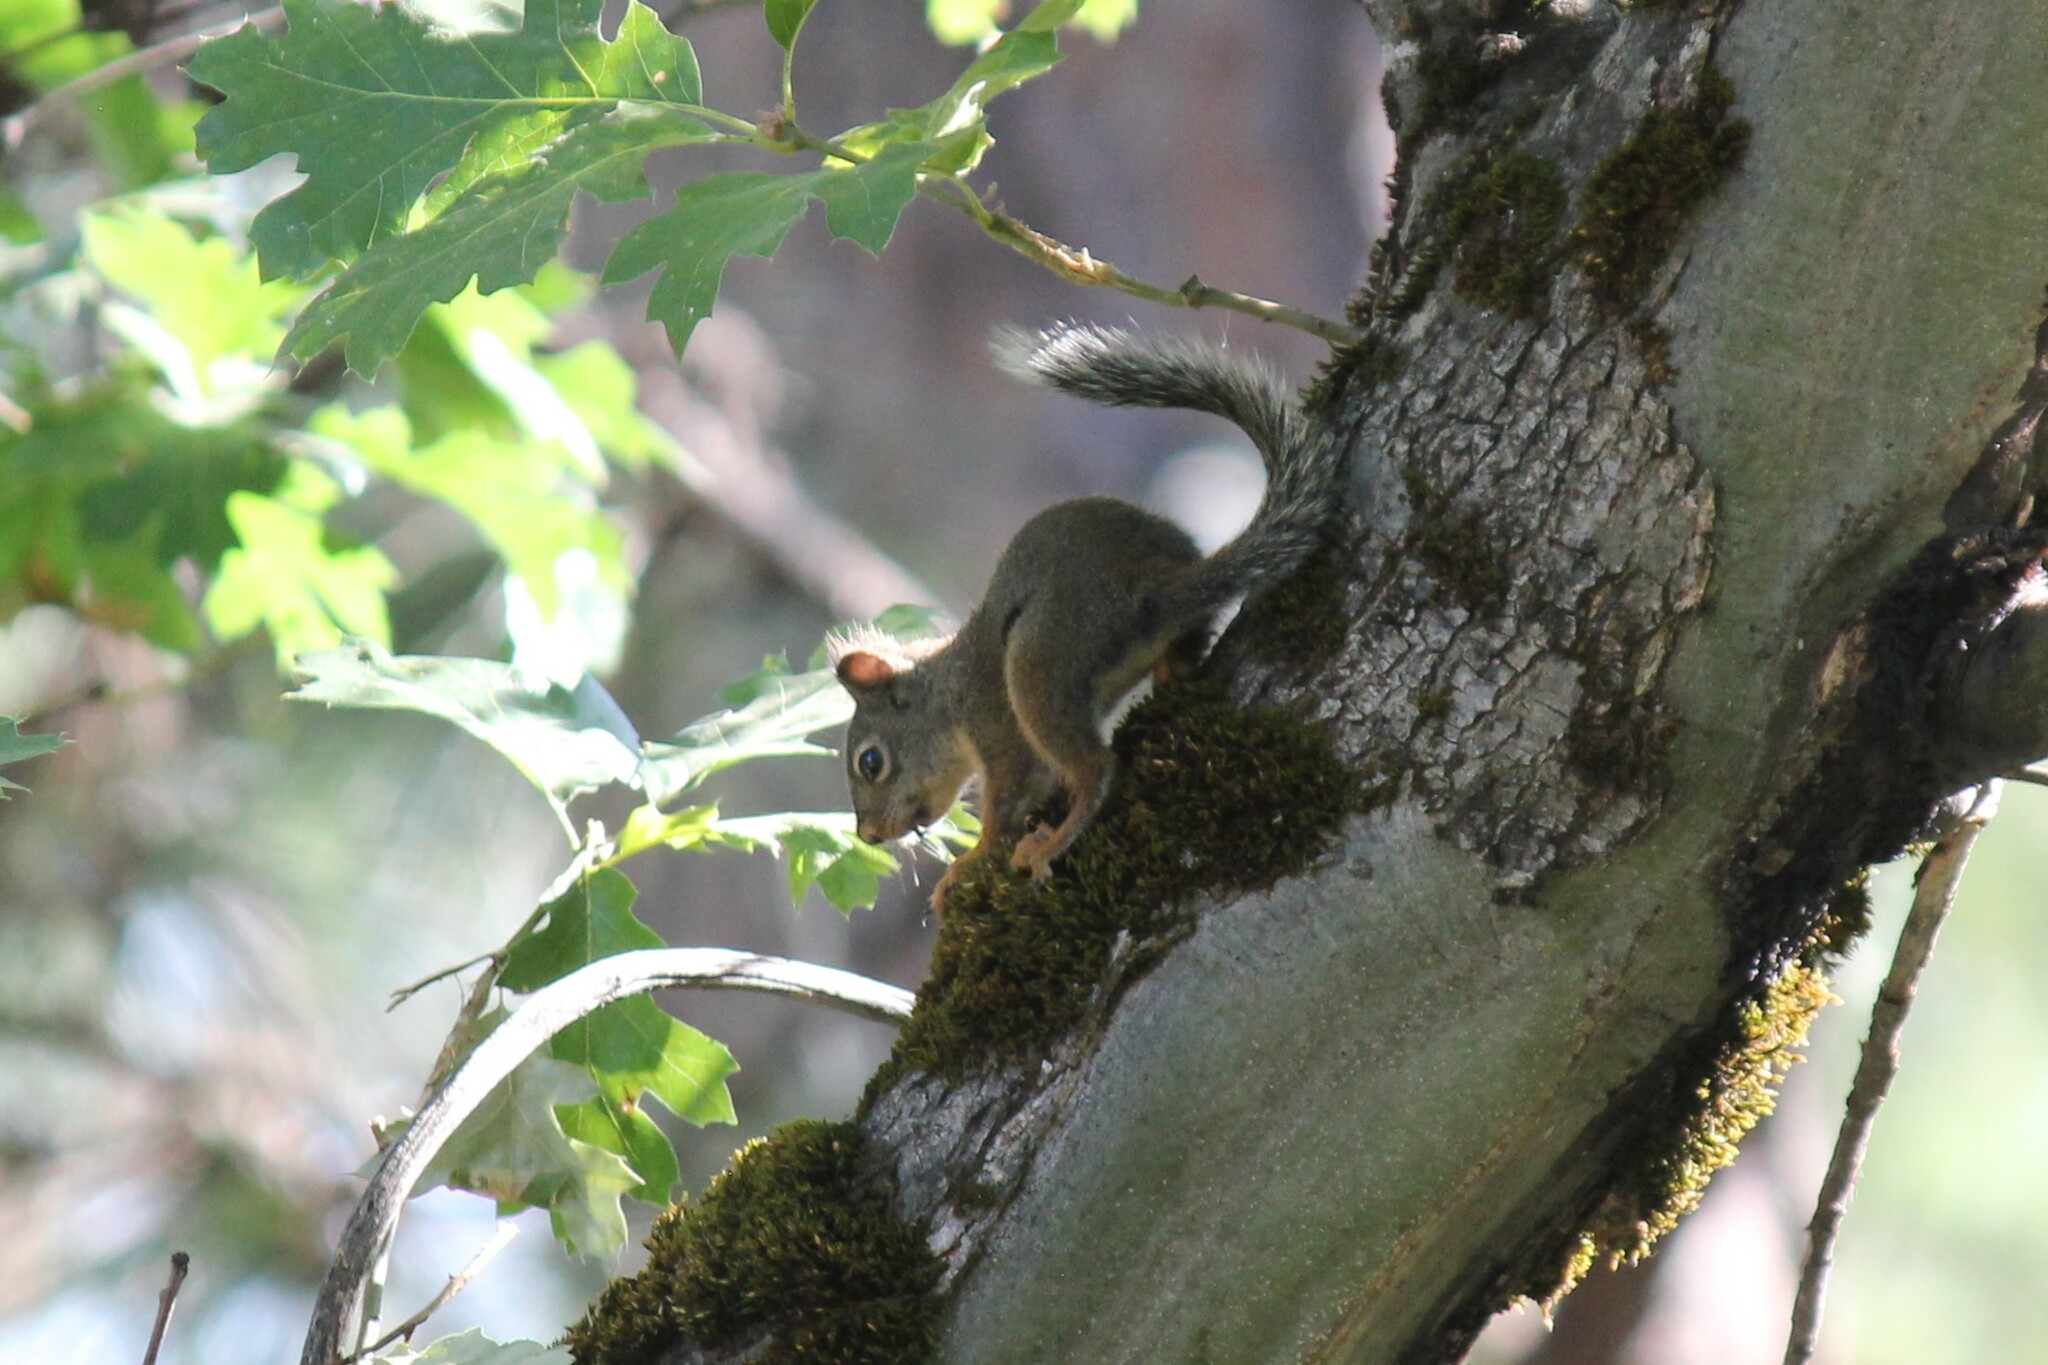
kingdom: Animalia
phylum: Chordata
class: Mammalia
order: Rodentia
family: Sciuridae
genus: Tamiasciurus
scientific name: Tamiasciurus douglasii
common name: Douglas's squirrel
